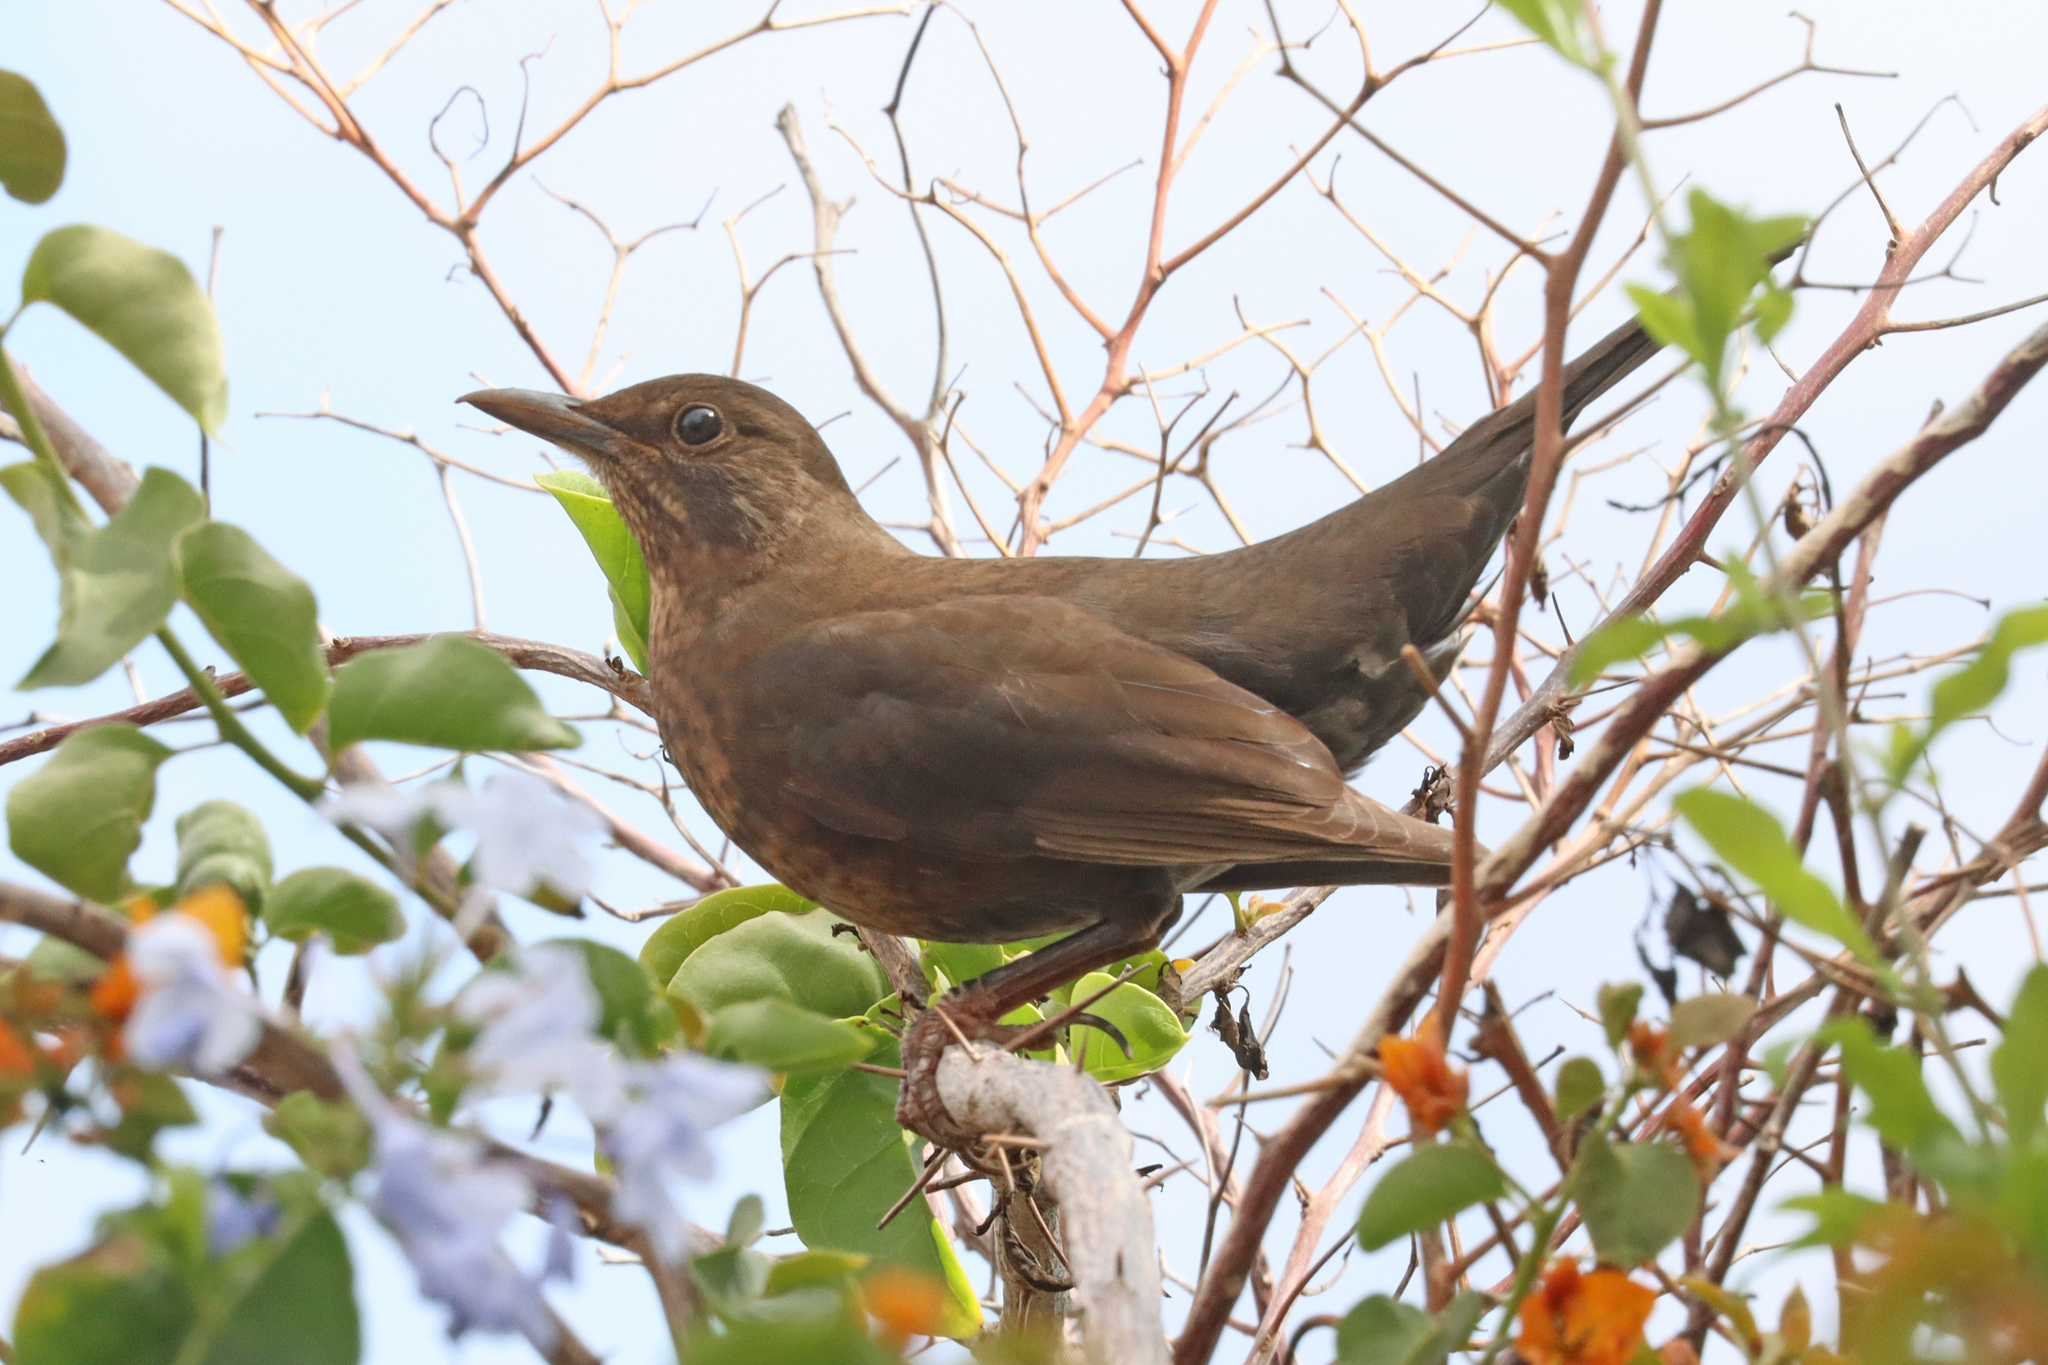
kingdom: Animalia
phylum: Chordata
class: Aves
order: Passeriformes
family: Turdidae
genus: Turdus
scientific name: Turdus merula
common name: Common blackbird
